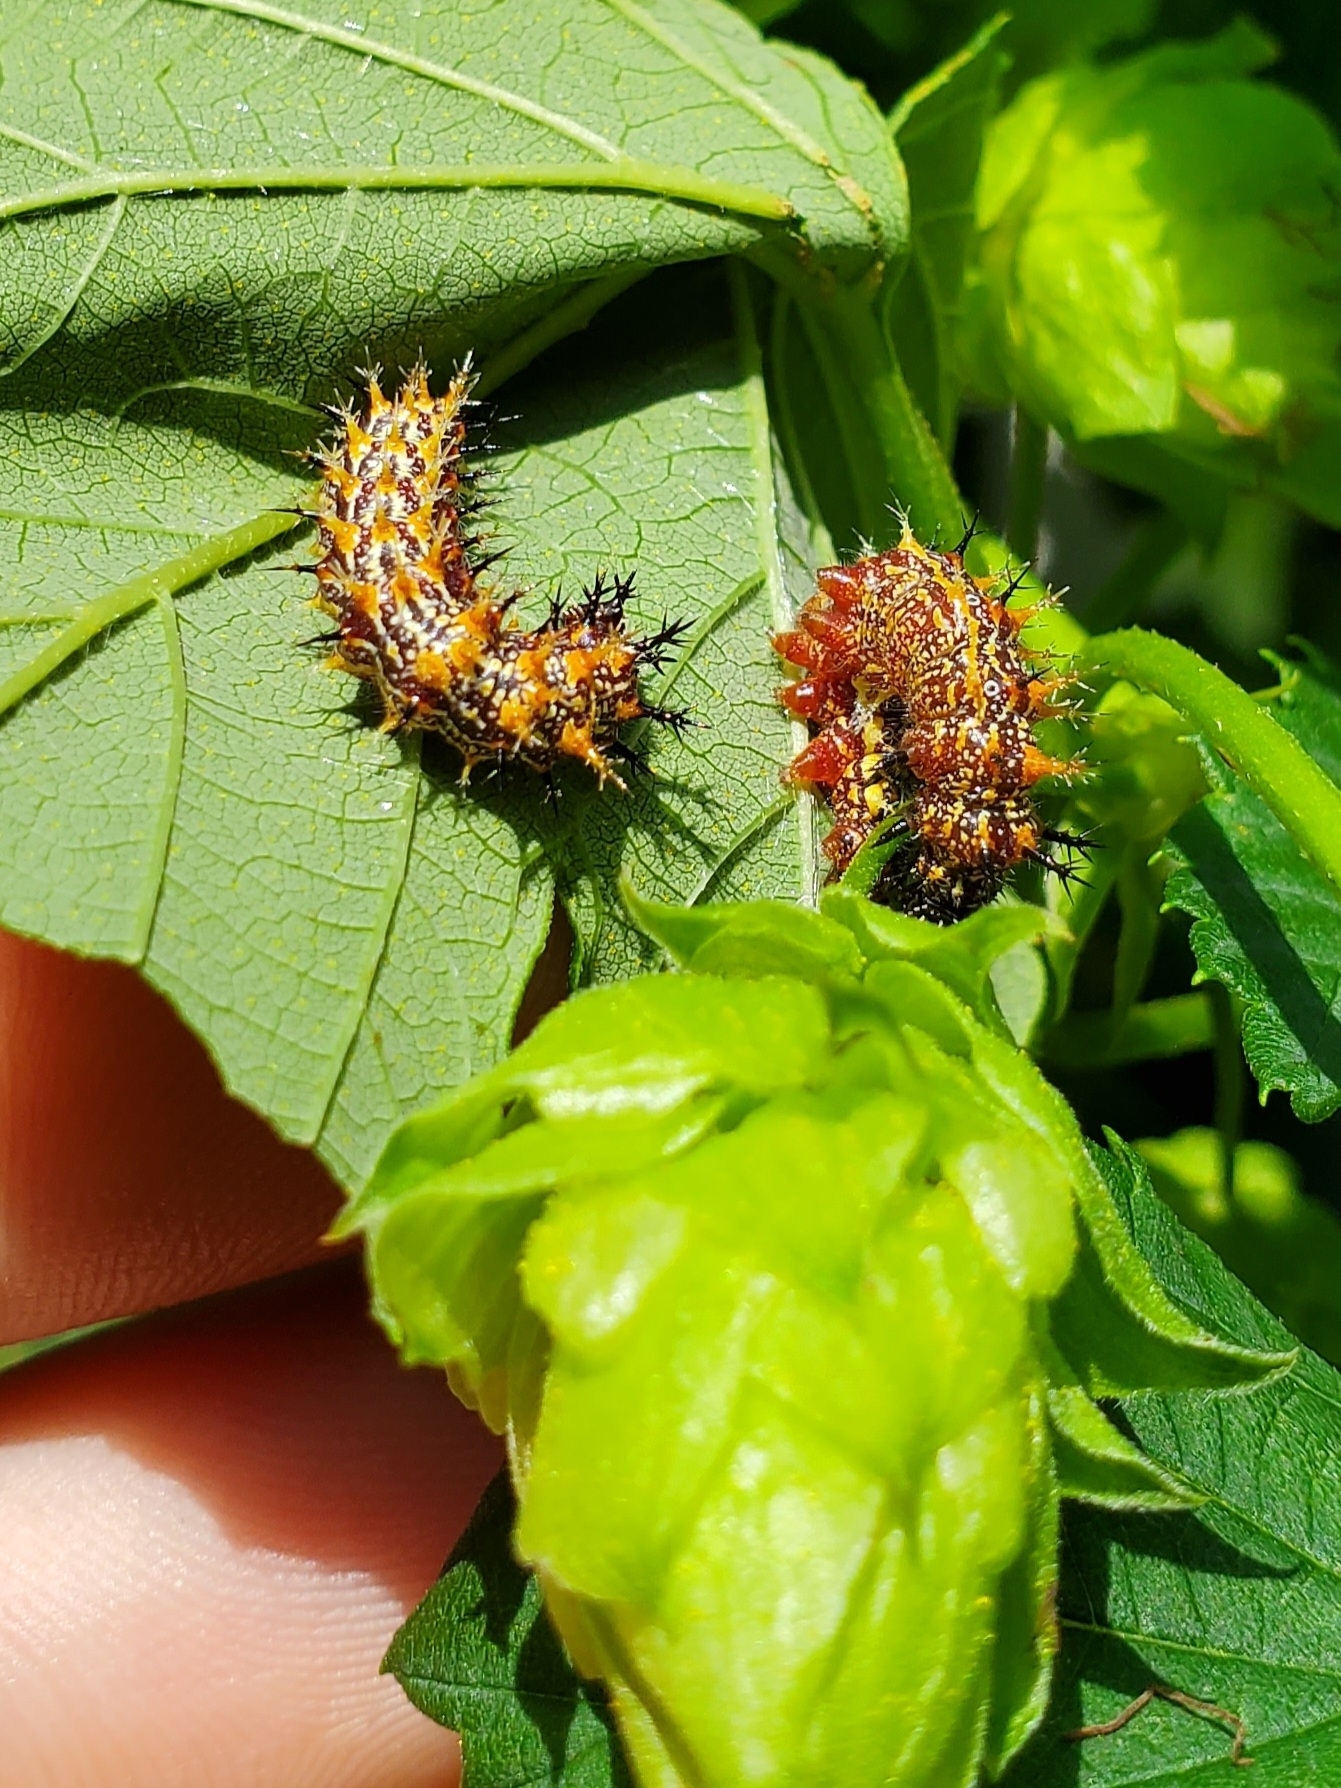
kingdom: Animalia
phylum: Arthropoda
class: Insecta
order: Lepidoptera
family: Nymphalidae
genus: Polygonia
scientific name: Polygonia interrogationis
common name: Question mark
